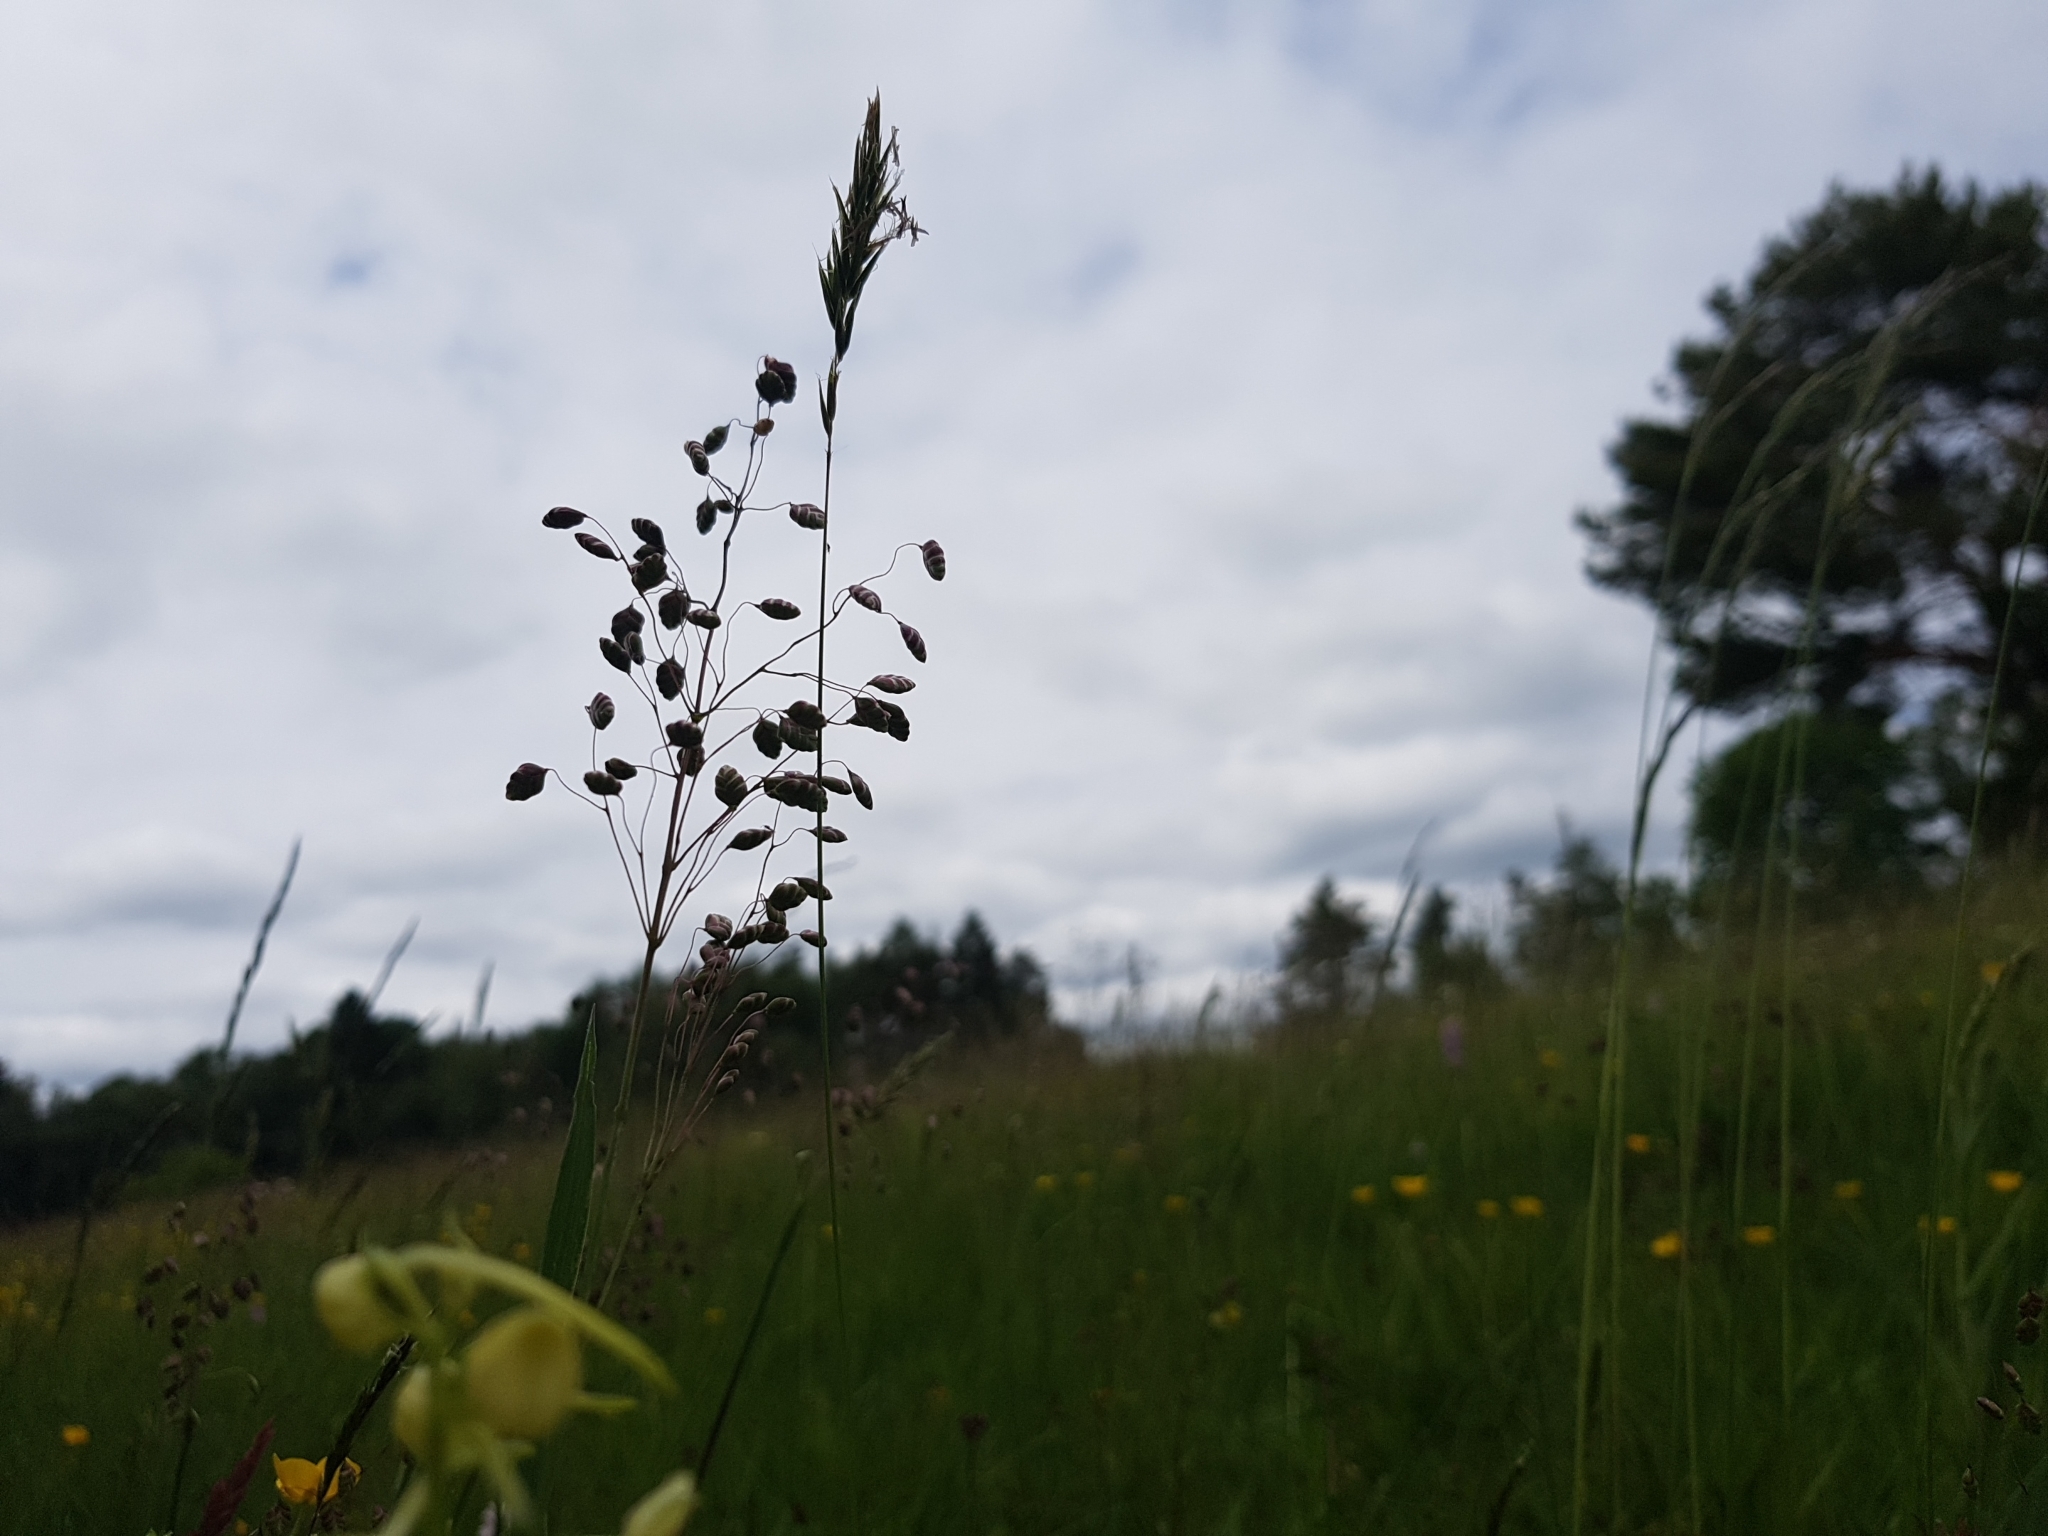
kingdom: Plantae
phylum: Tracheophyta
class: Liliopsida
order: Poales
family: Poaceae
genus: Briza
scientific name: Briza media
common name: Quaking grass
